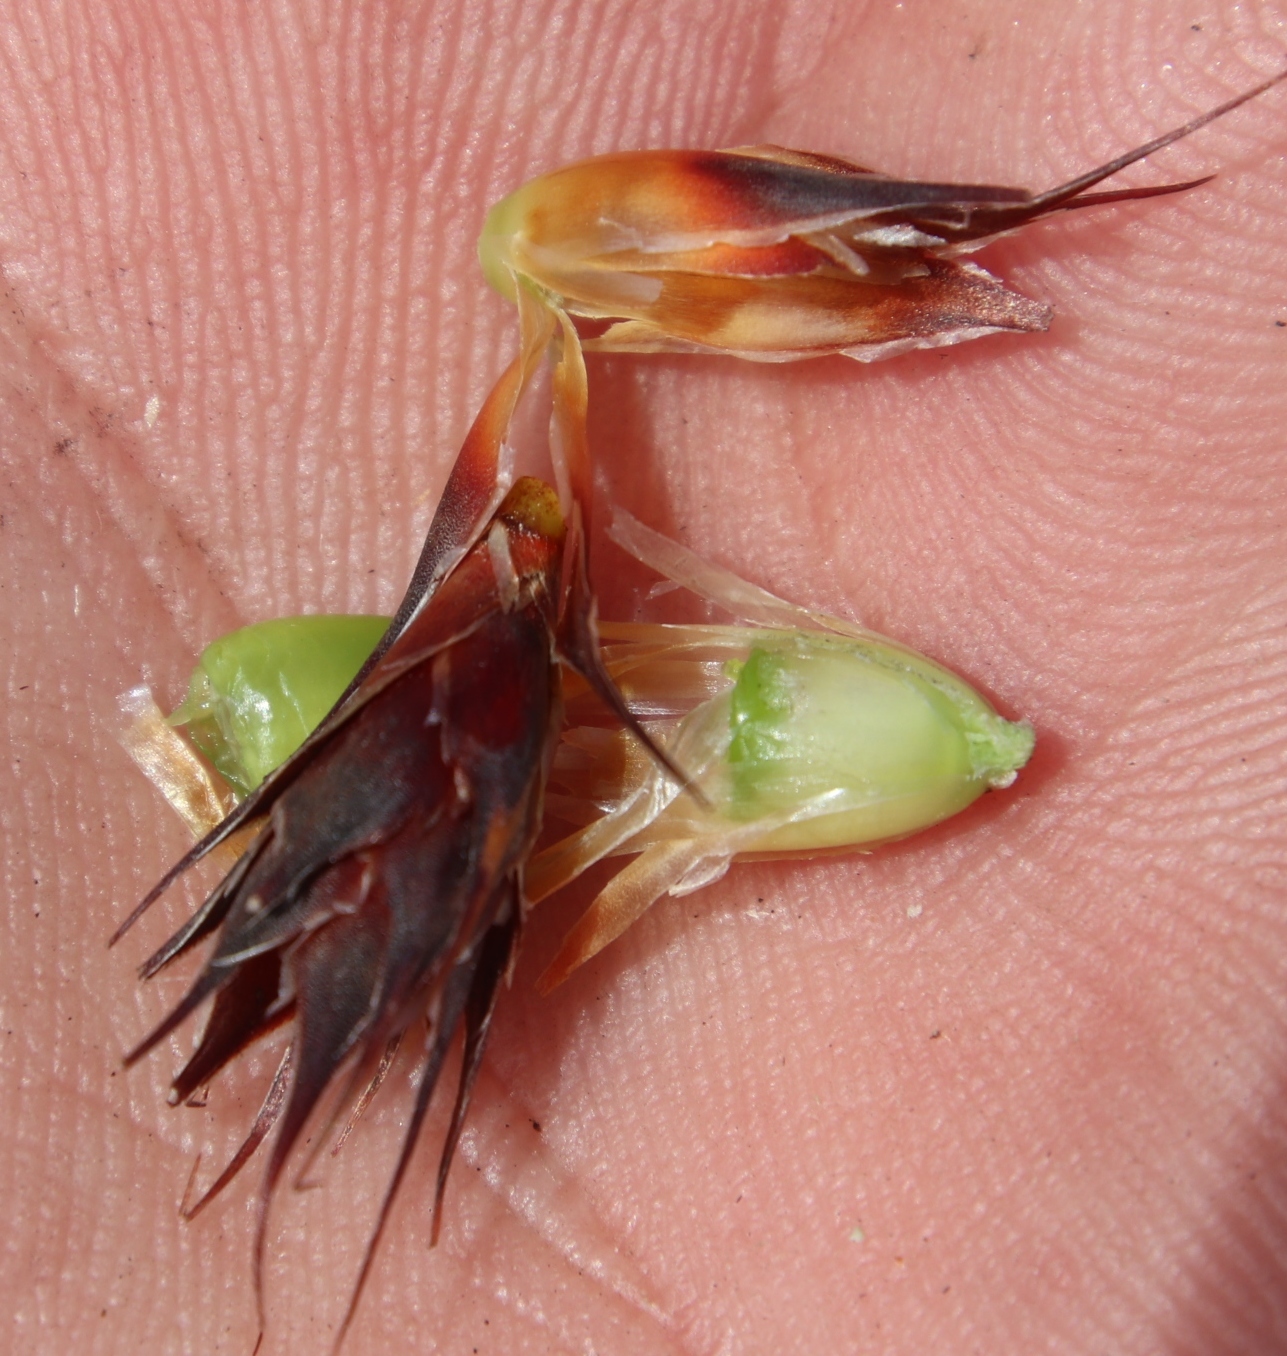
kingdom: Plantae
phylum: Tracheophyta
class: Liliopsida
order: Poales
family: Restionaceae
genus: Hypodiscus
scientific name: Hypodiscus aristatus
